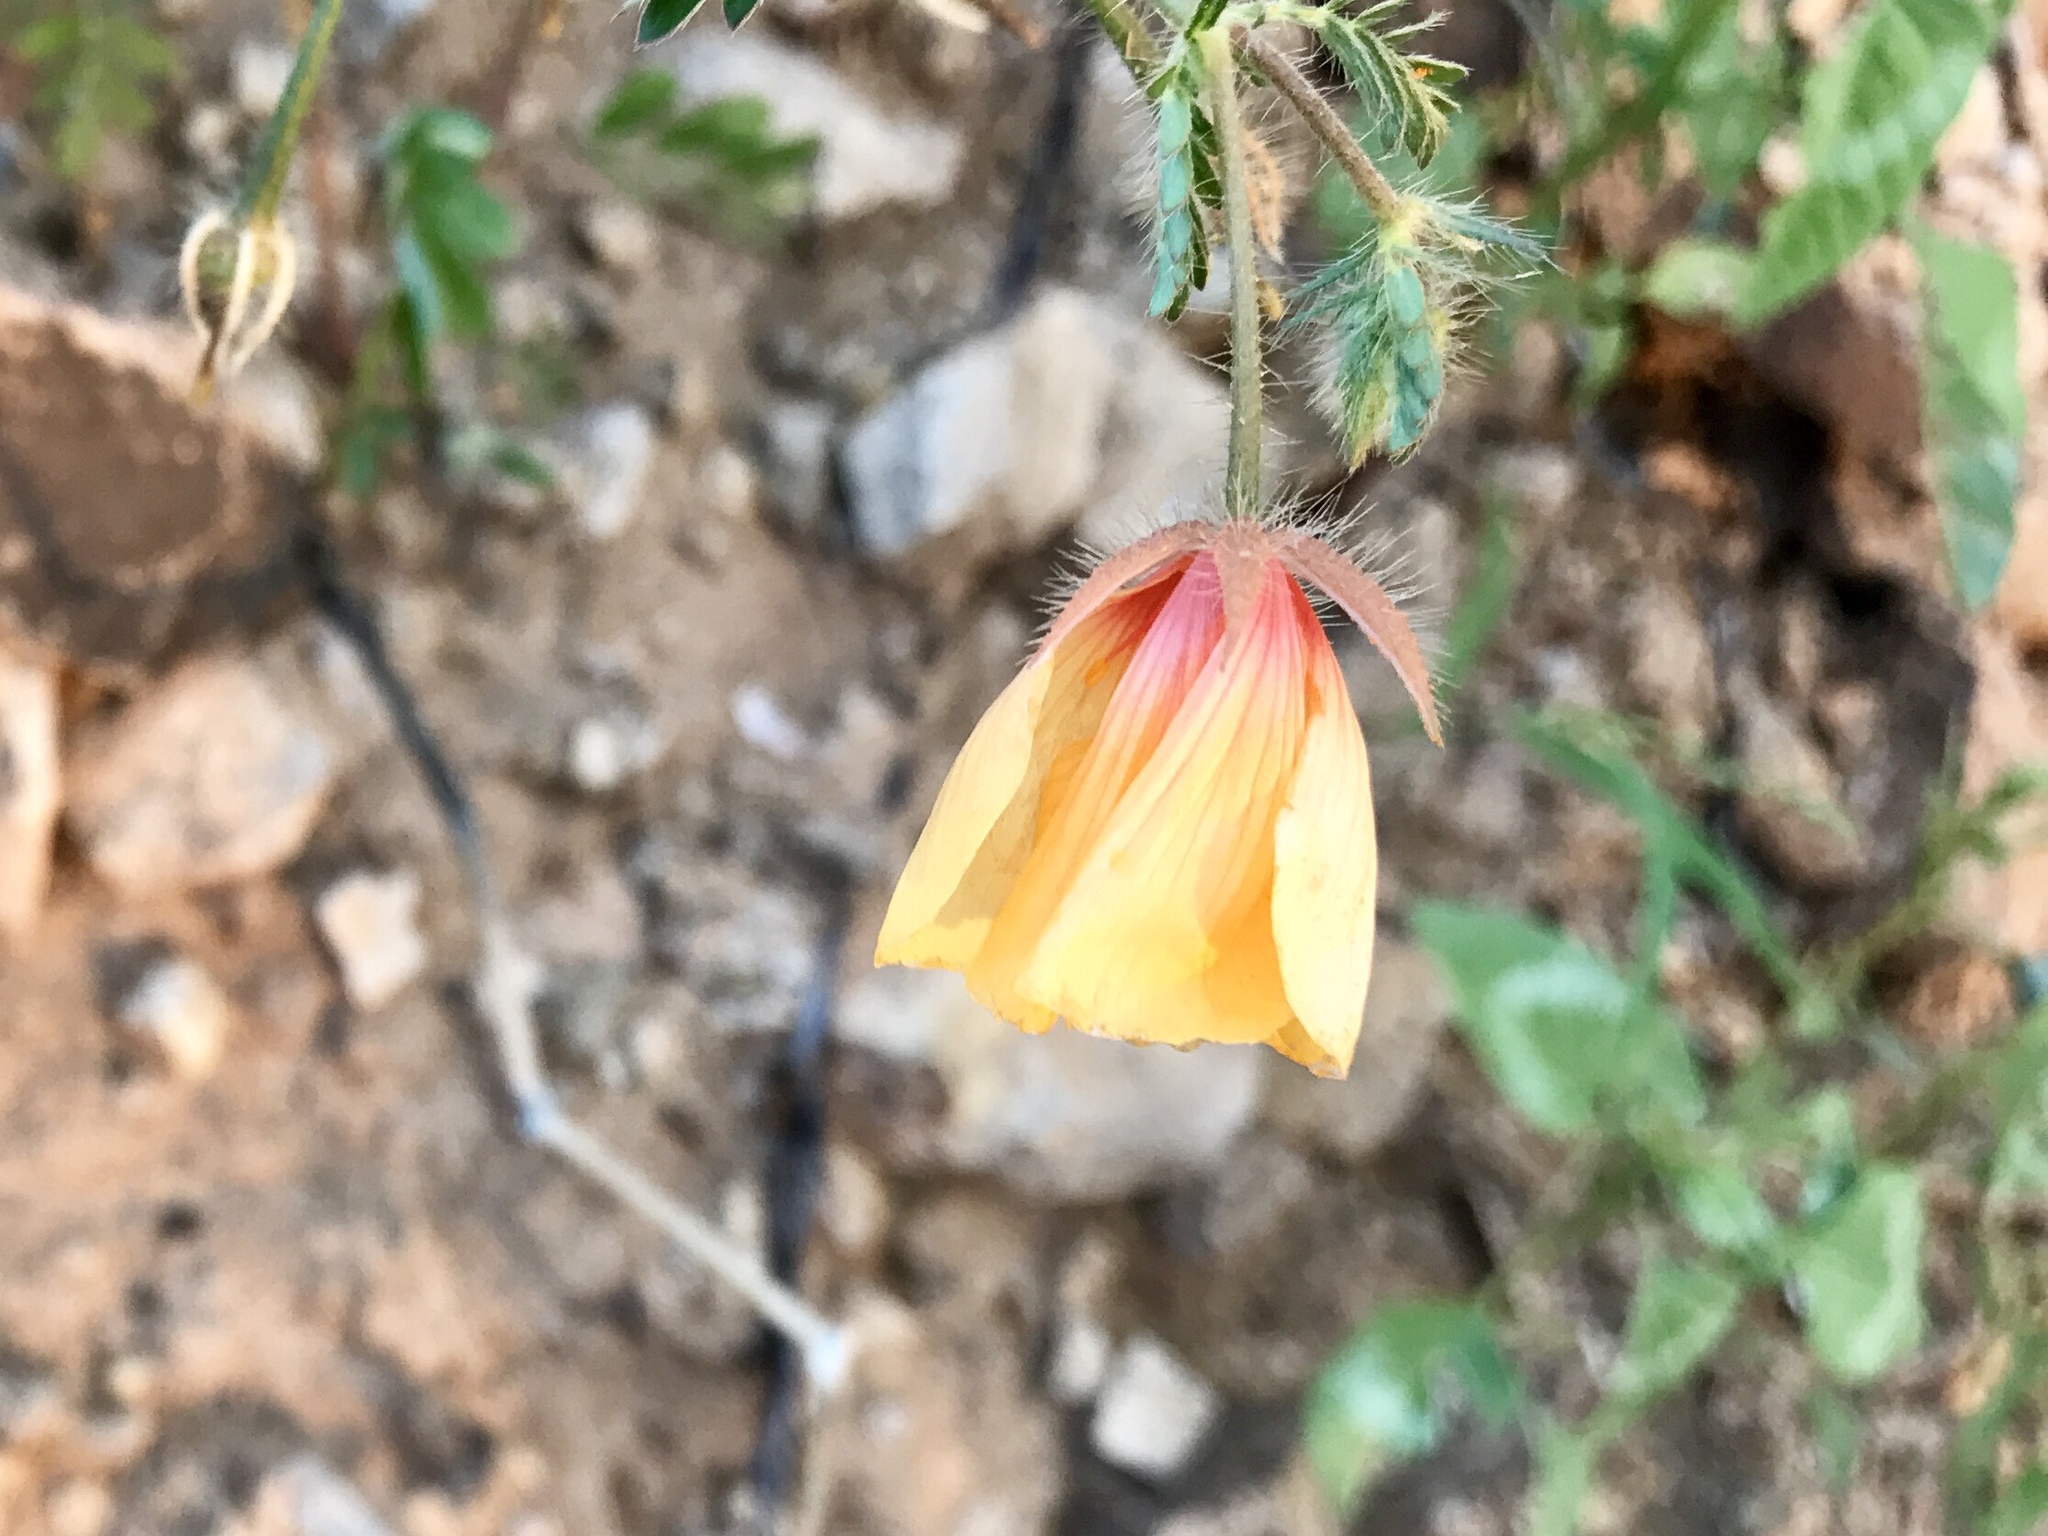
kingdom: Plantae
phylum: Tracheophyta
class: Magnoliopsida
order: Zygophyllales
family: Zygophyllaceae
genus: Kallstroemia
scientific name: Kallstroemia grandiflora
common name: Arizona-poppy
